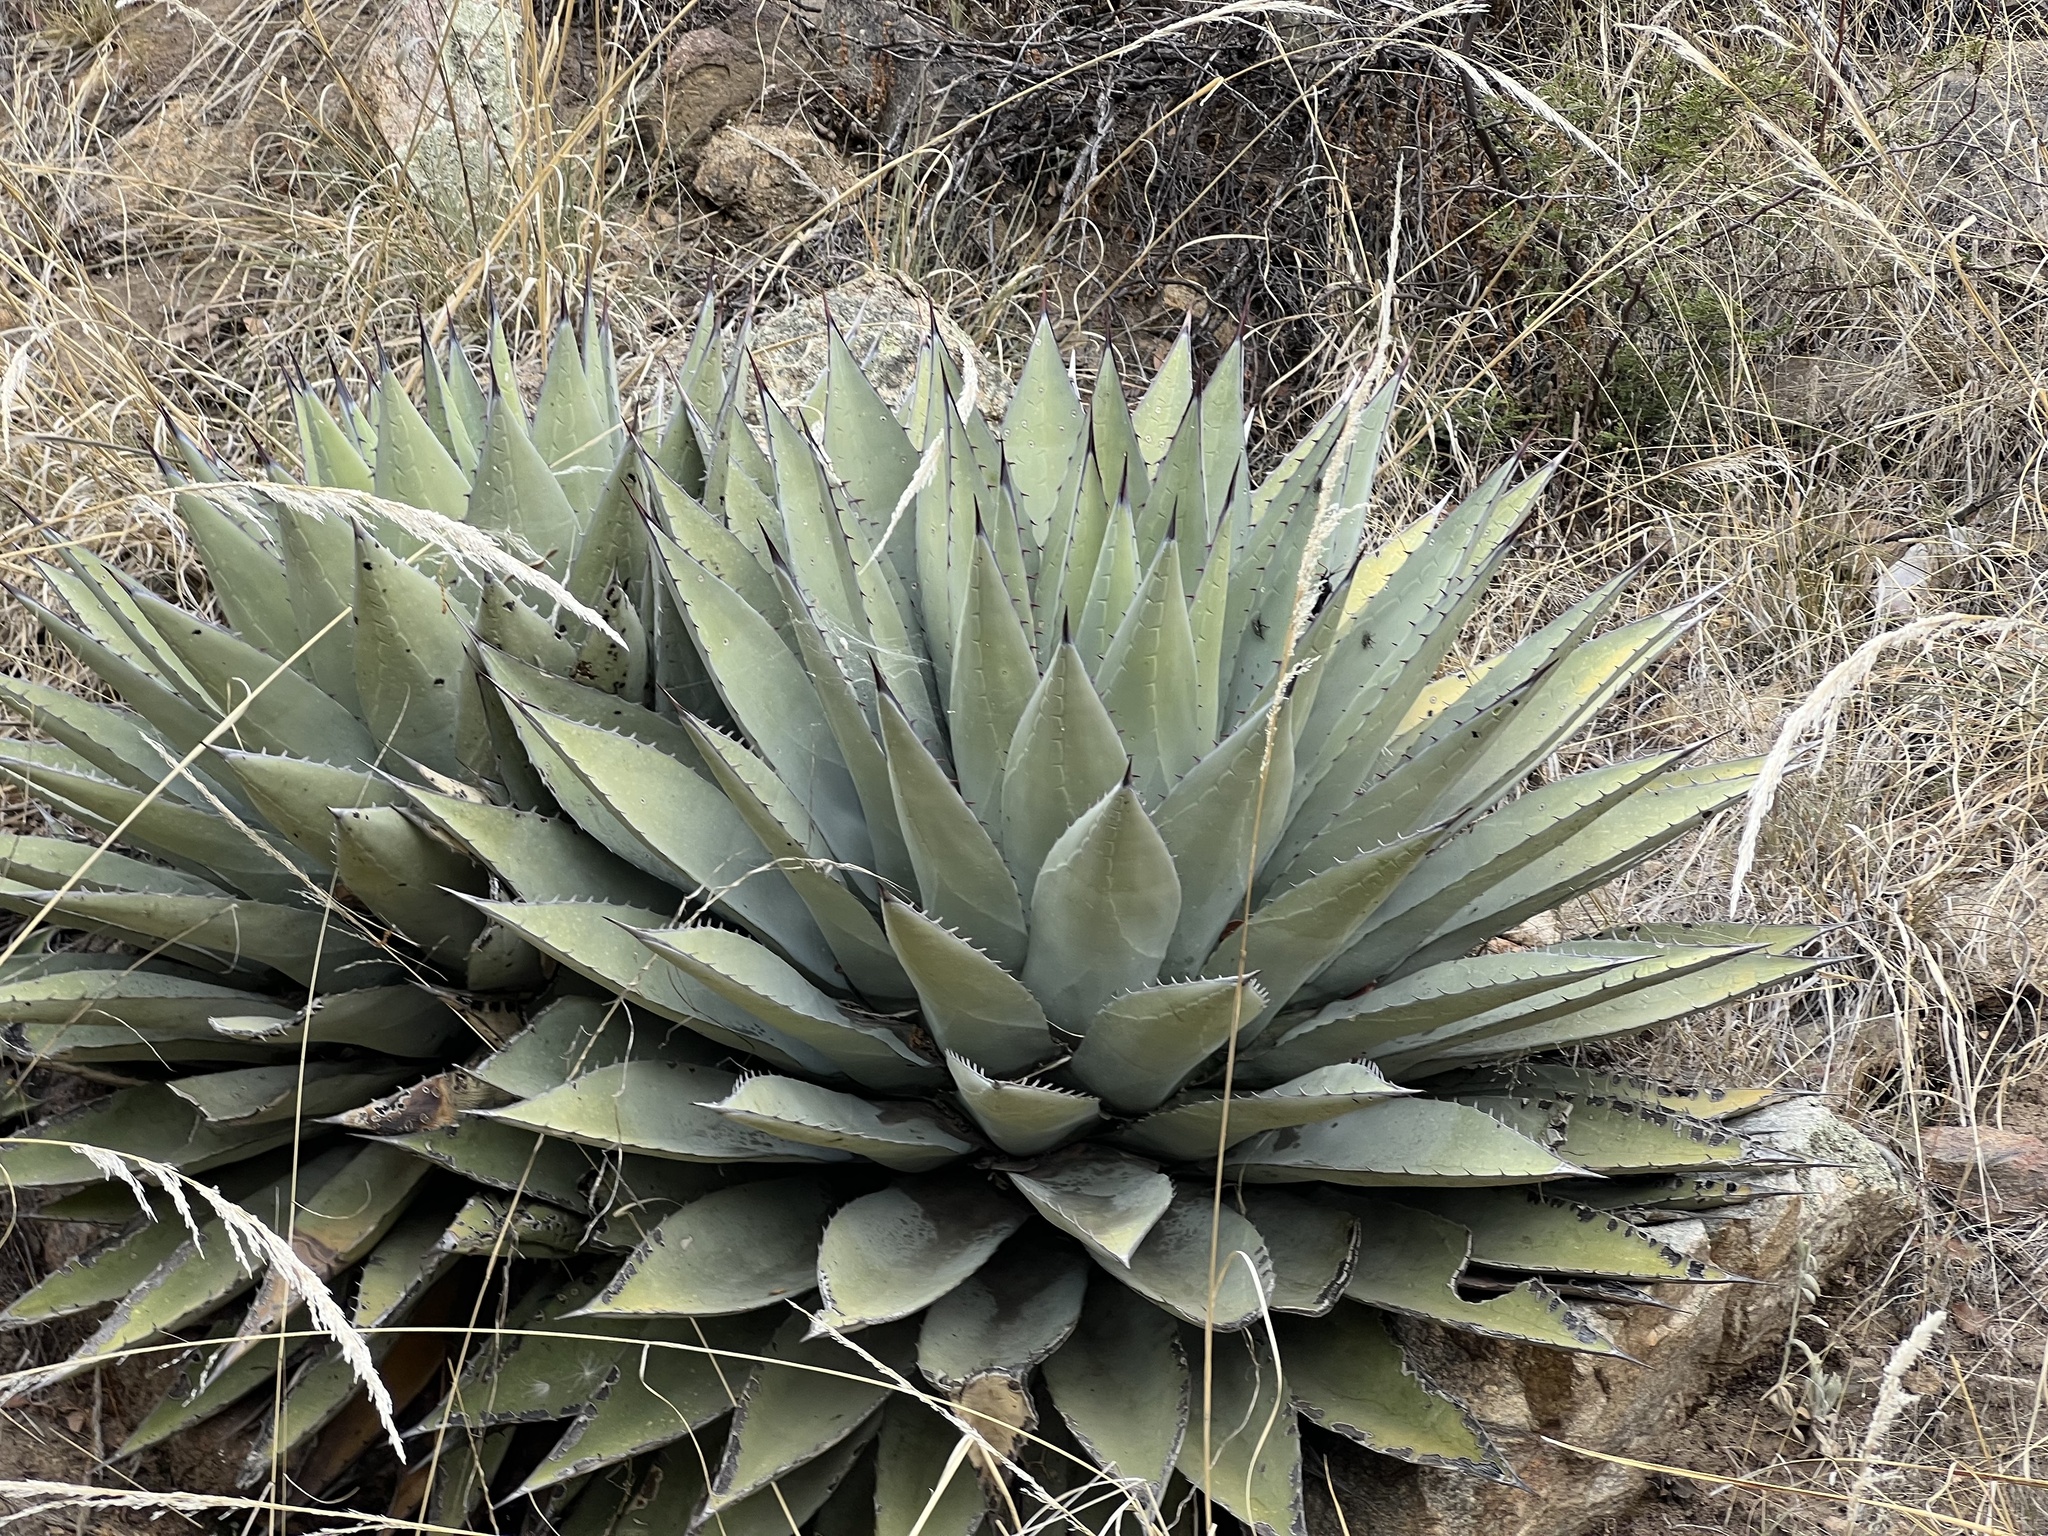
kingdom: Plantae
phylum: Tracheophyta
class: Liliopsida
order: Asparagales
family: Asparagaceae
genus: Agave
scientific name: Agave parryi
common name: Parry's agave
